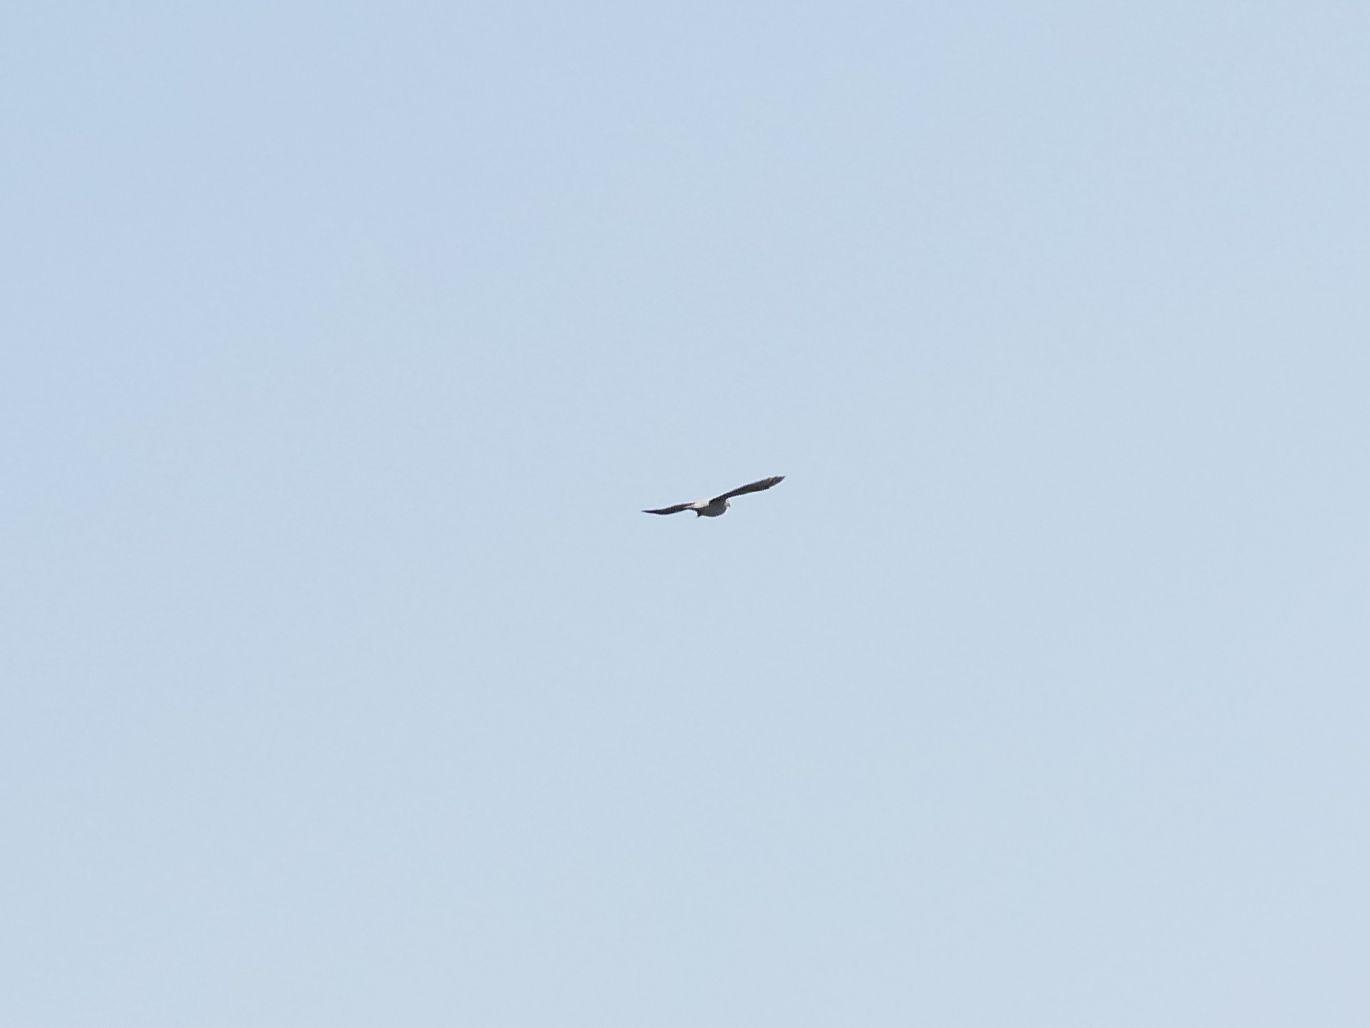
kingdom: Animalia
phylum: Chordata
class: Aves
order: Columbiformes
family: Columbidae
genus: Columba
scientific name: Columba palumbus
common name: Common wood pigeon
